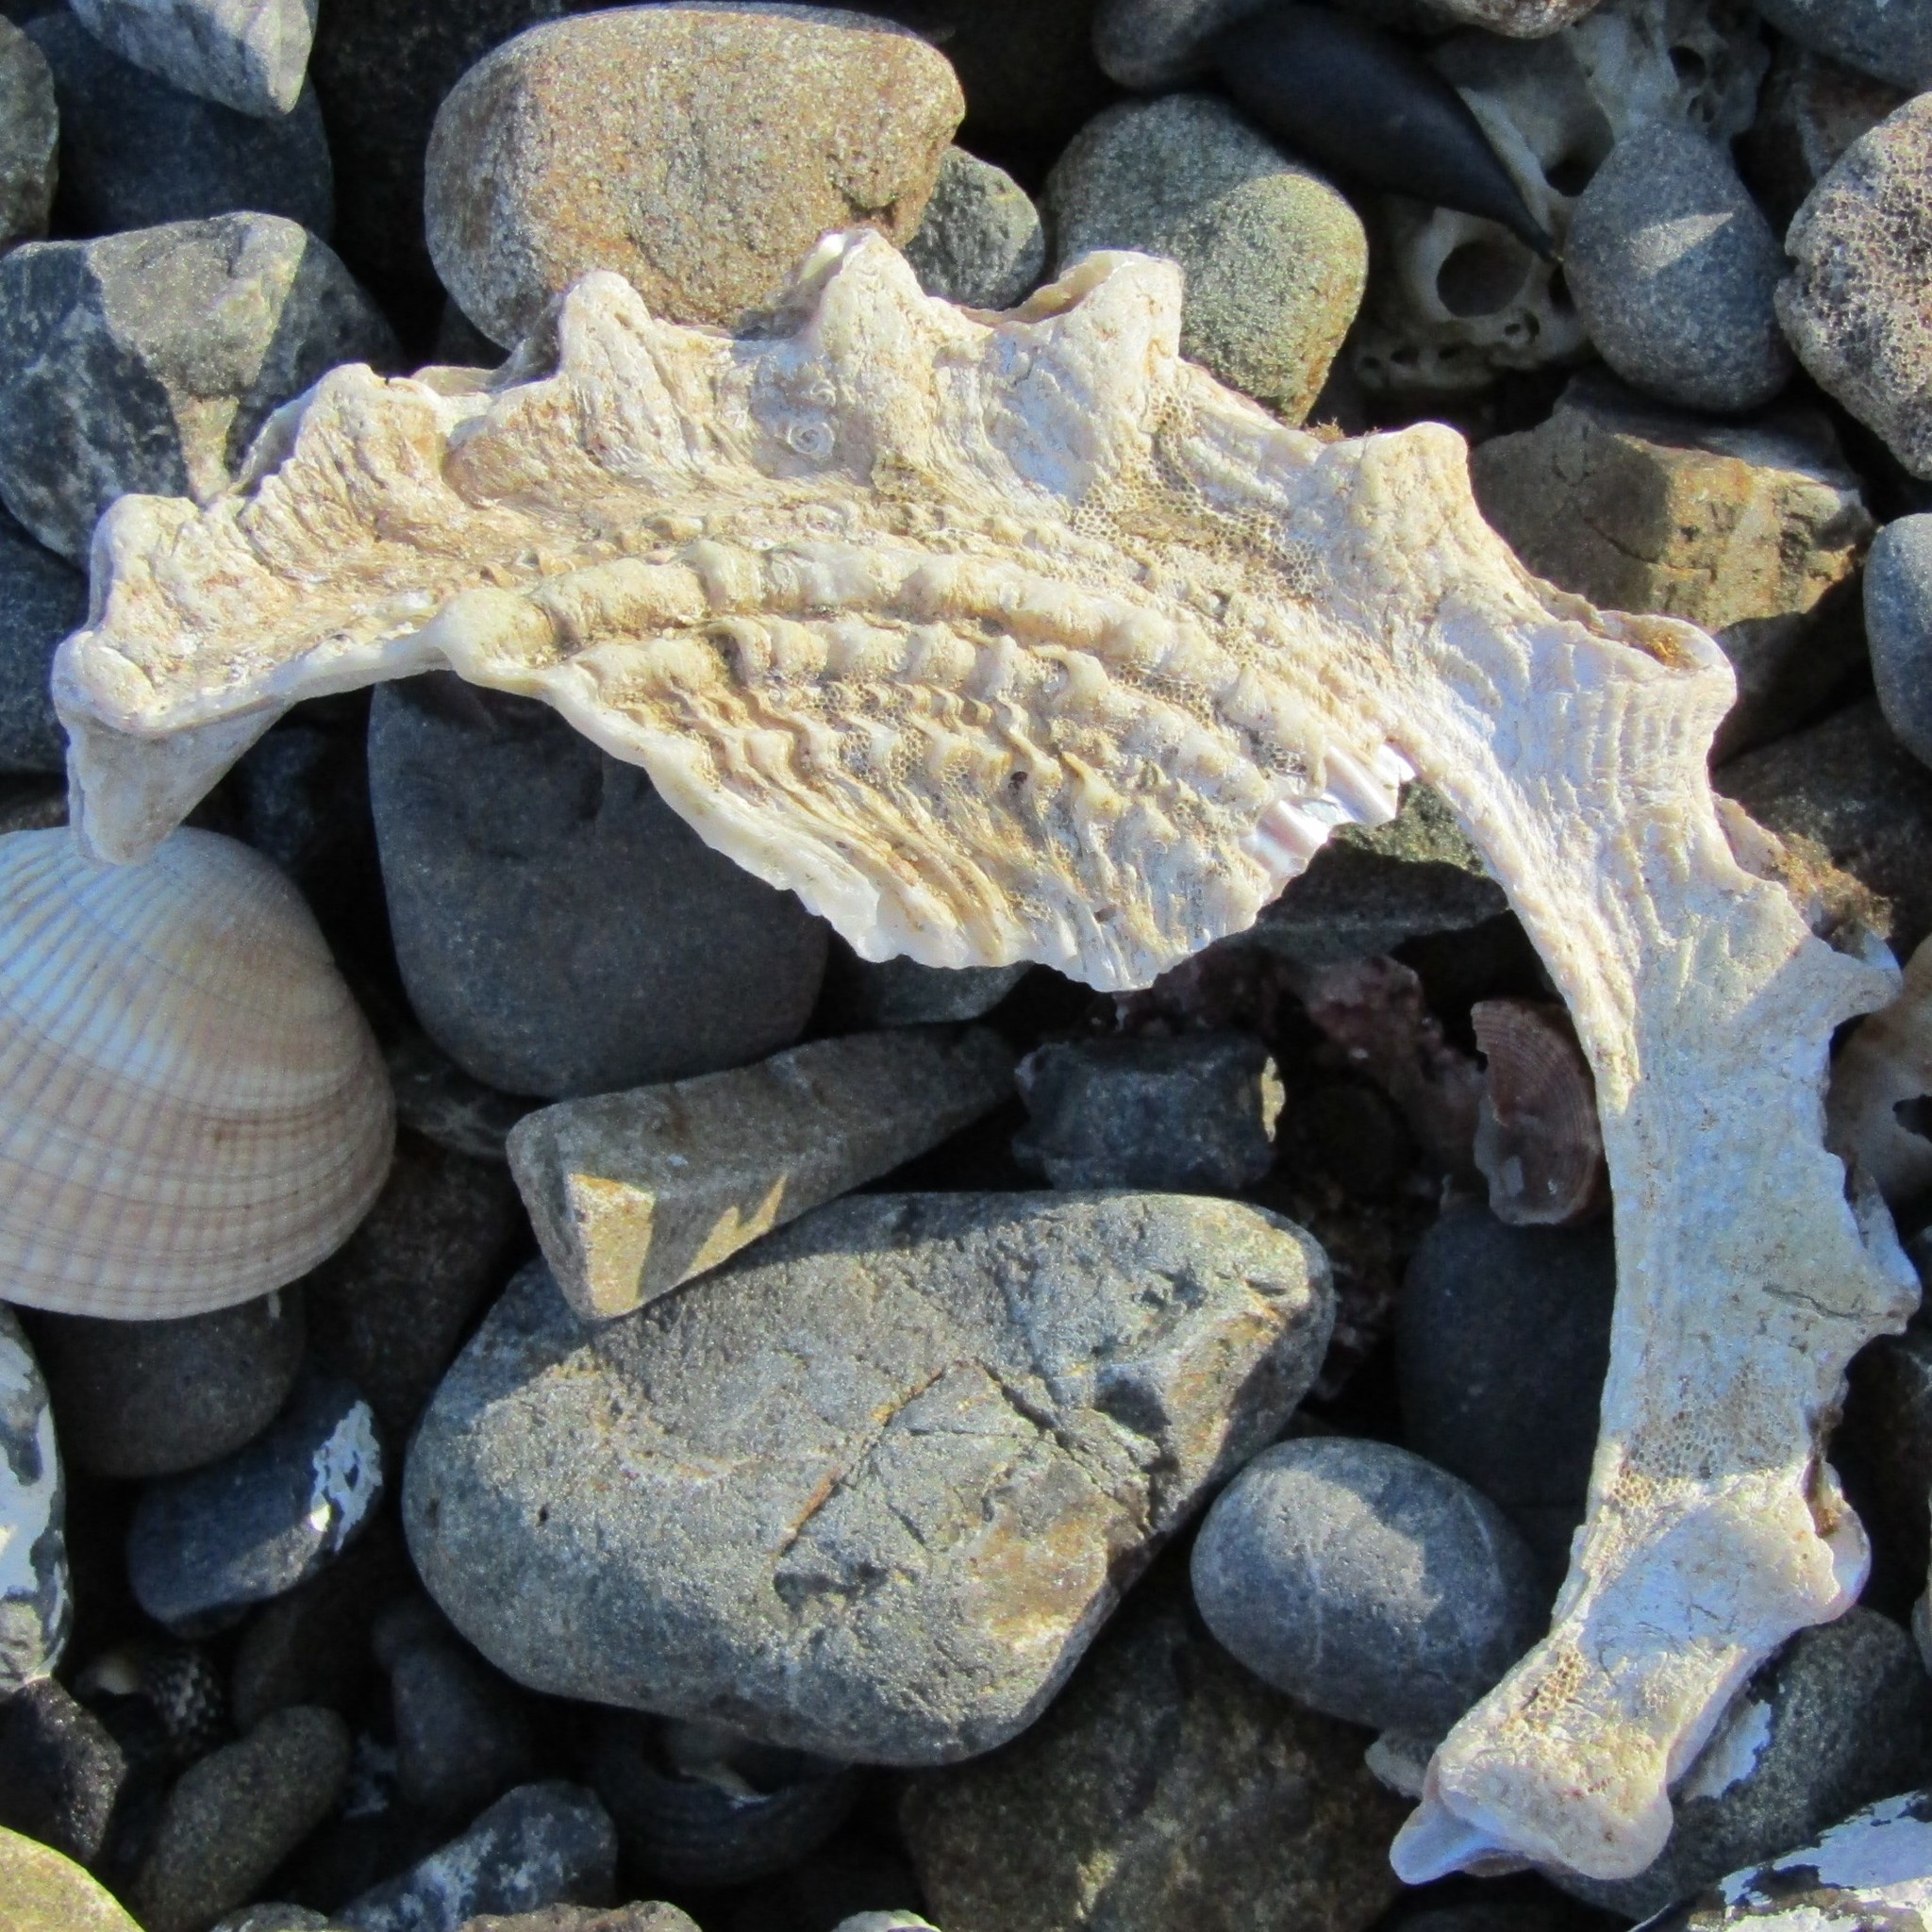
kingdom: Animalia
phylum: Mollusca
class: Gastropoda
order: Trochida
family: Turbinidae
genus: Astraea
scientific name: Astraea heliotropium
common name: Sun shell
